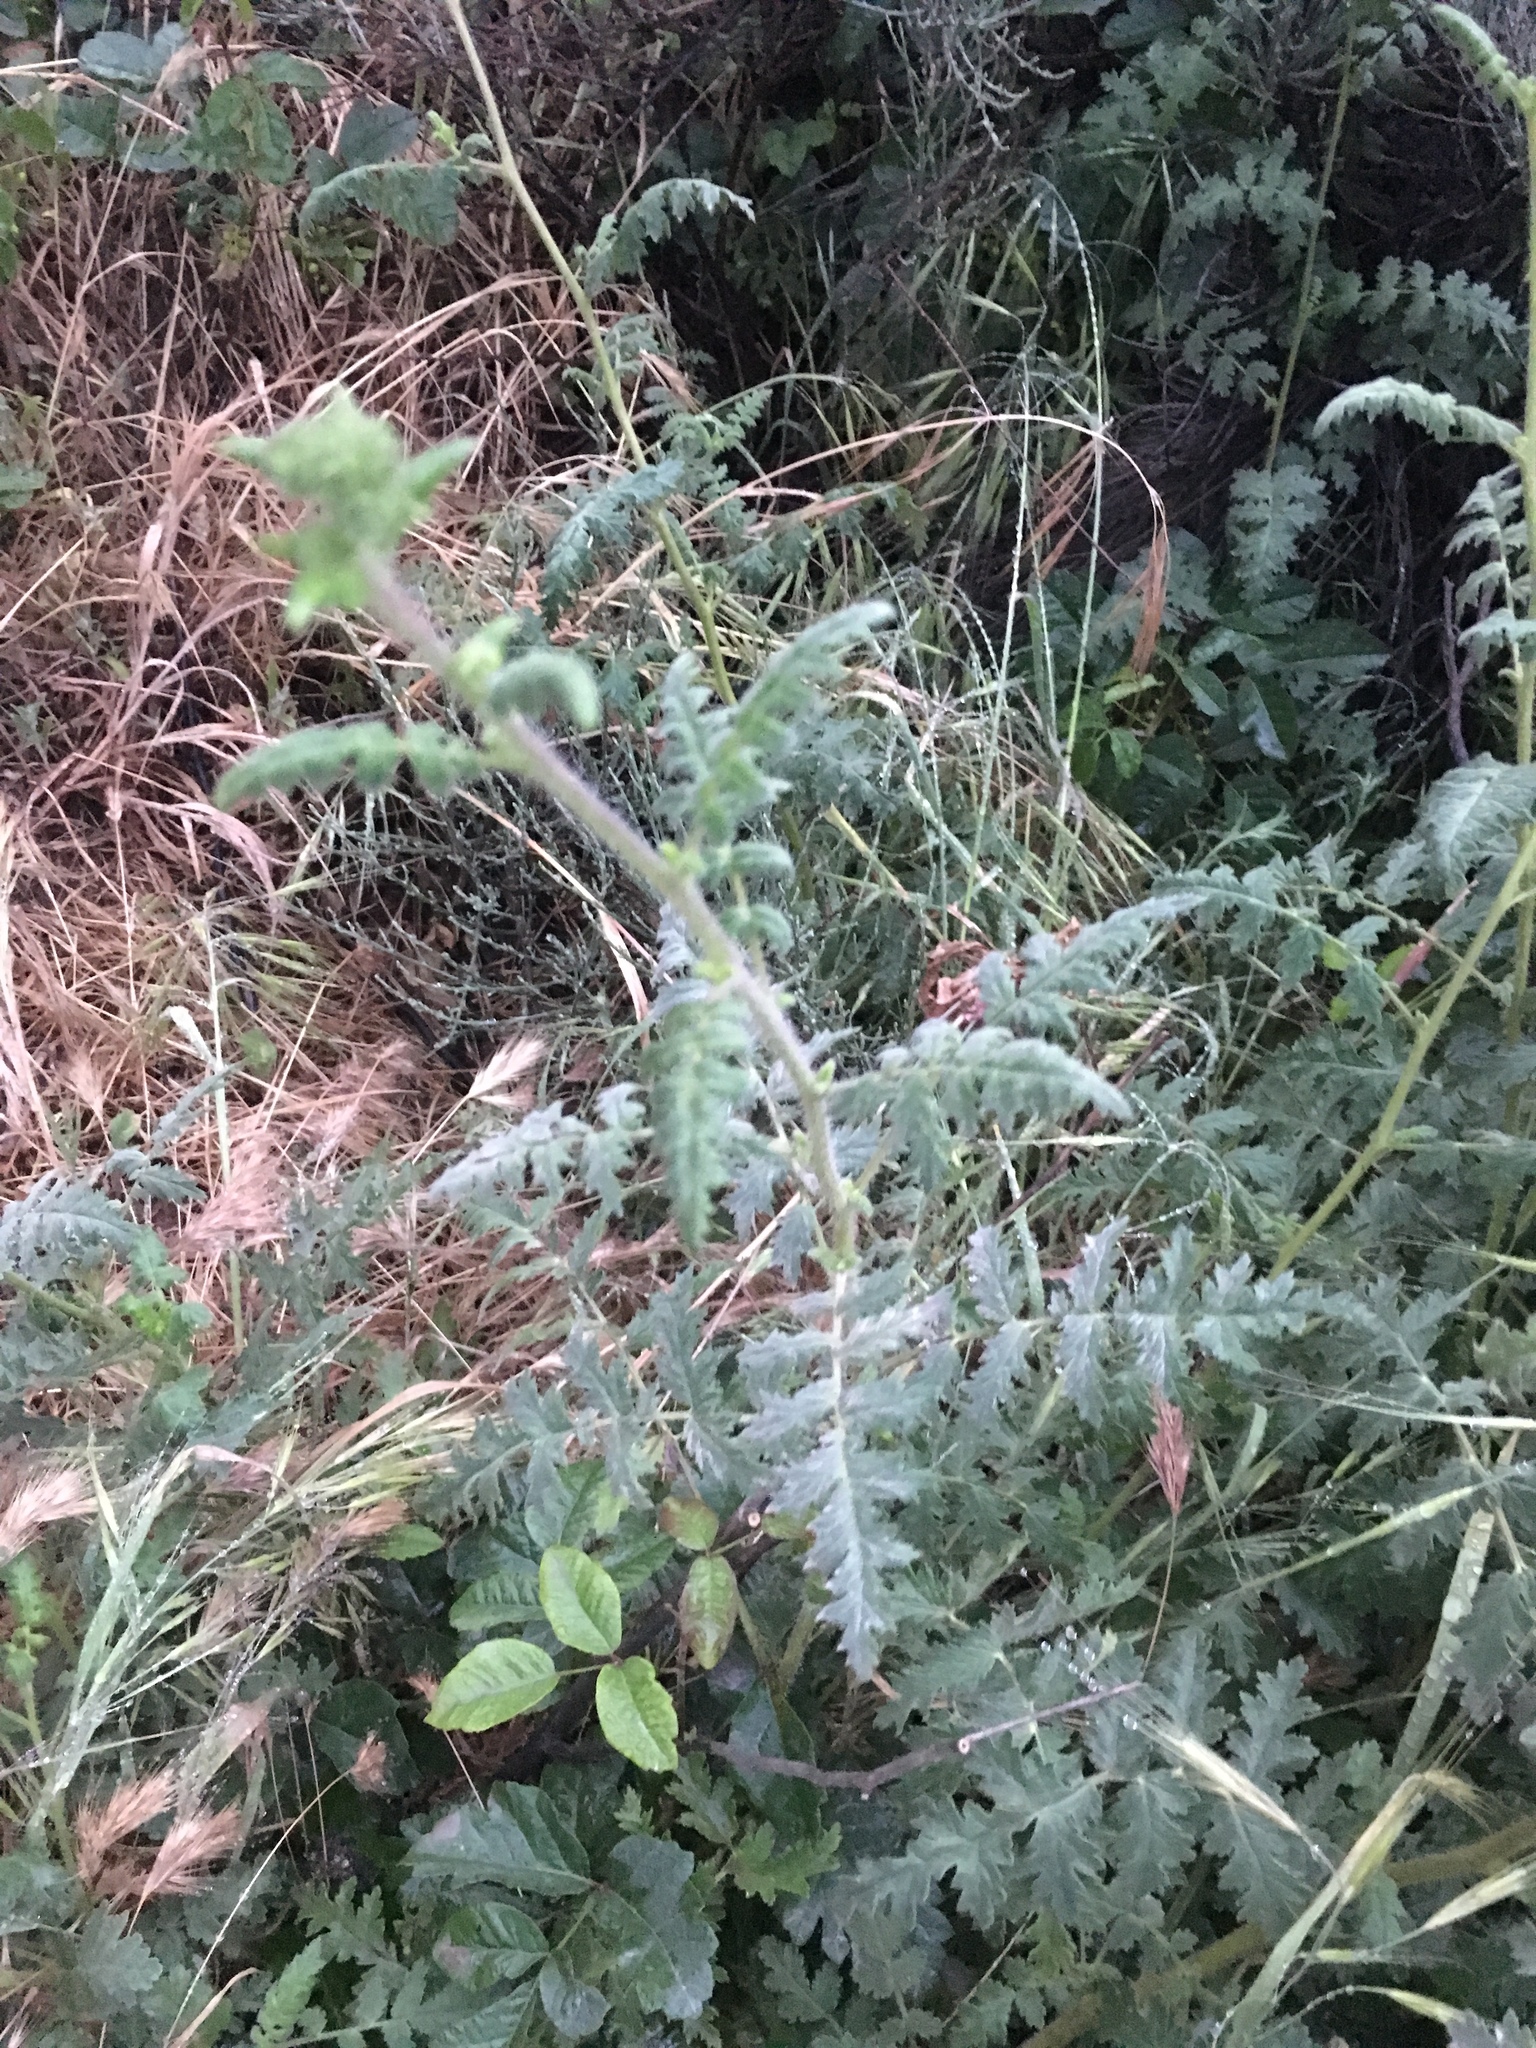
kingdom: Plantae
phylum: Tracheophyta
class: Magnoliopsida
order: Boraginales
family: Hydrophyllaceae
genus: Phacelia
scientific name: Phacelia ramosissima
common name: Branching phacelia
